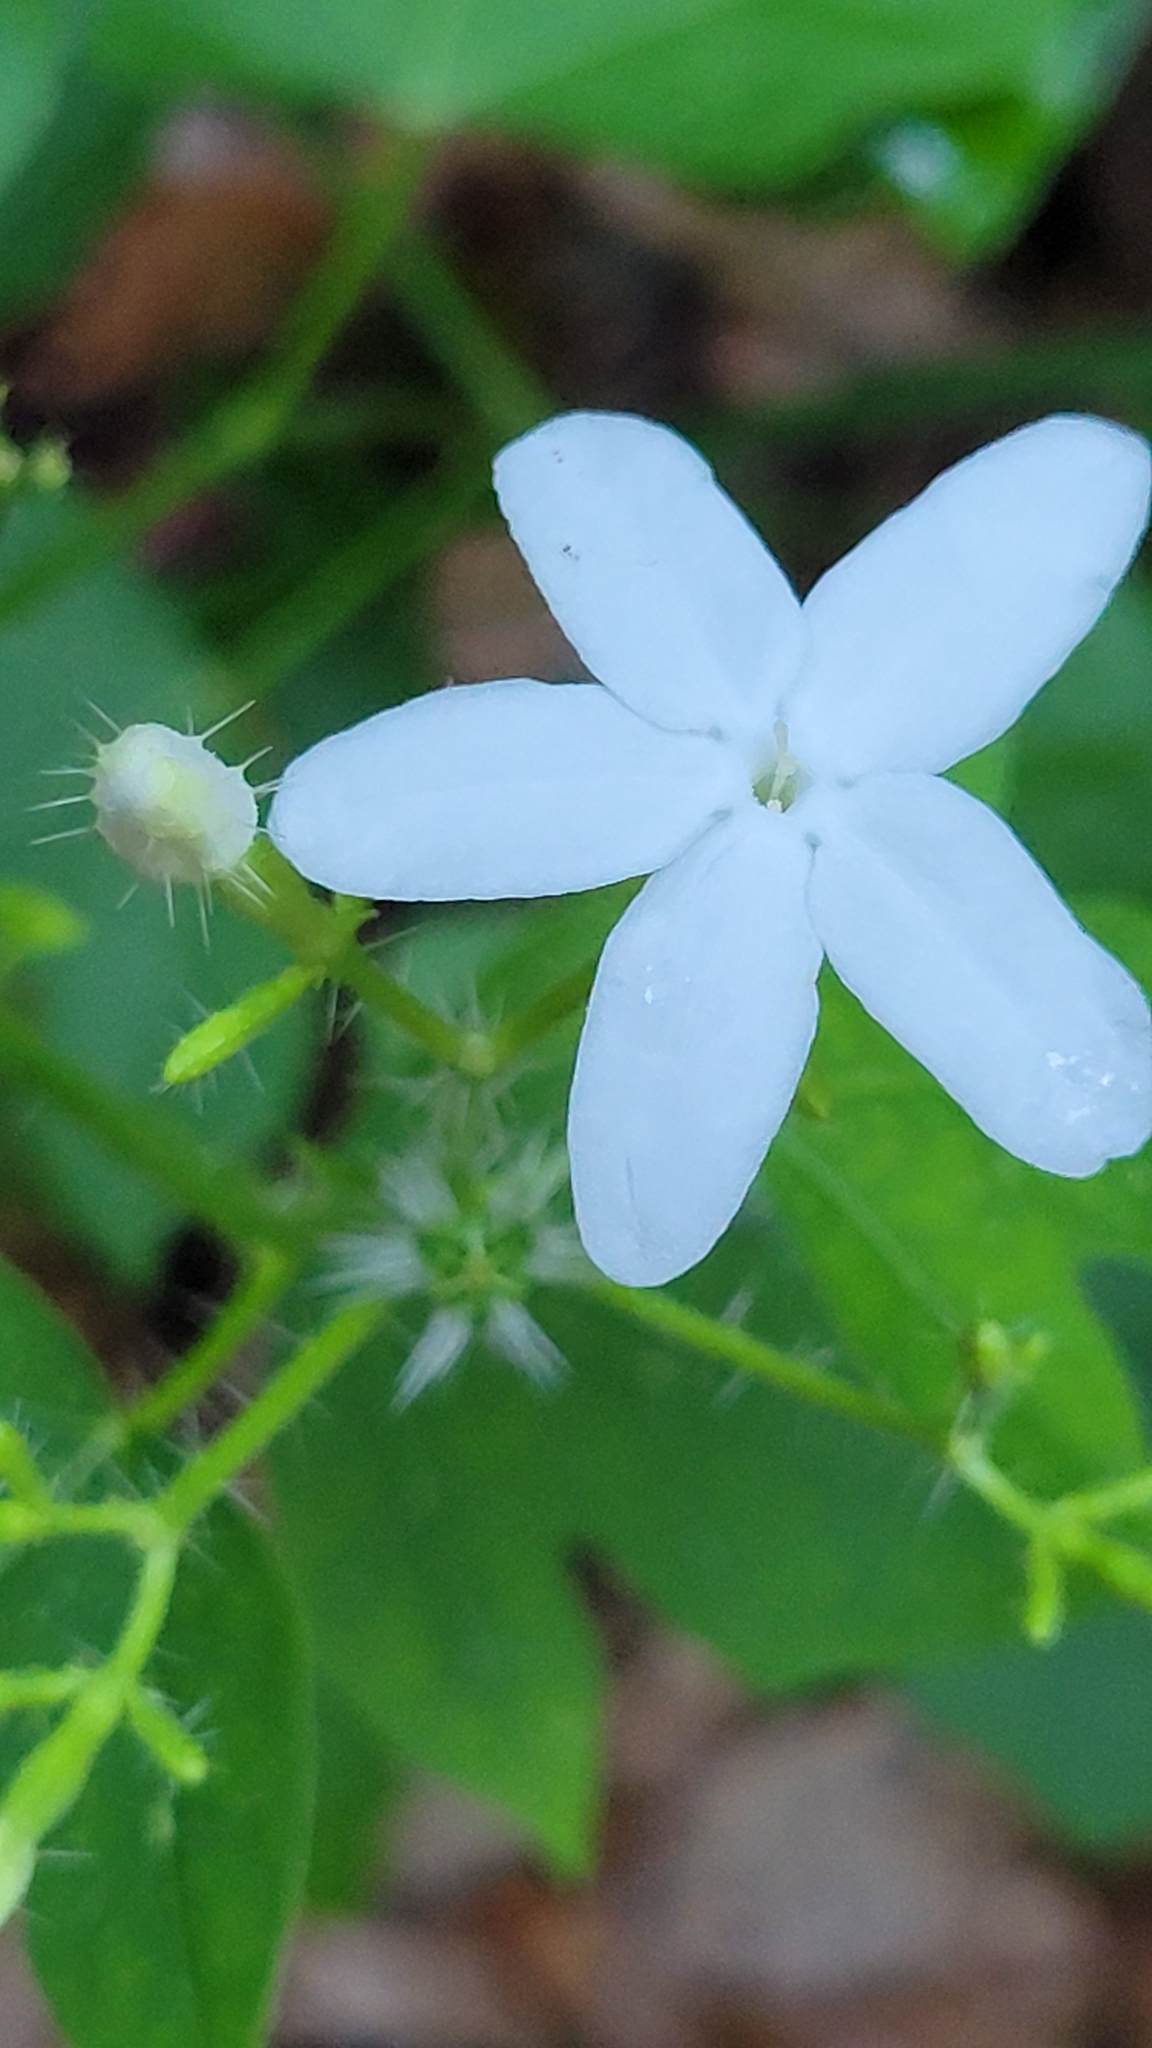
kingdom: Plantae
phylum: Tracheophyta
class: Magnoliopsida
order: Malpighiales
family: Euphorbiaceae
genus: Cnidoscolus
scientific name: Cnidoscolus stimulosus
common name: Bull-nettle
